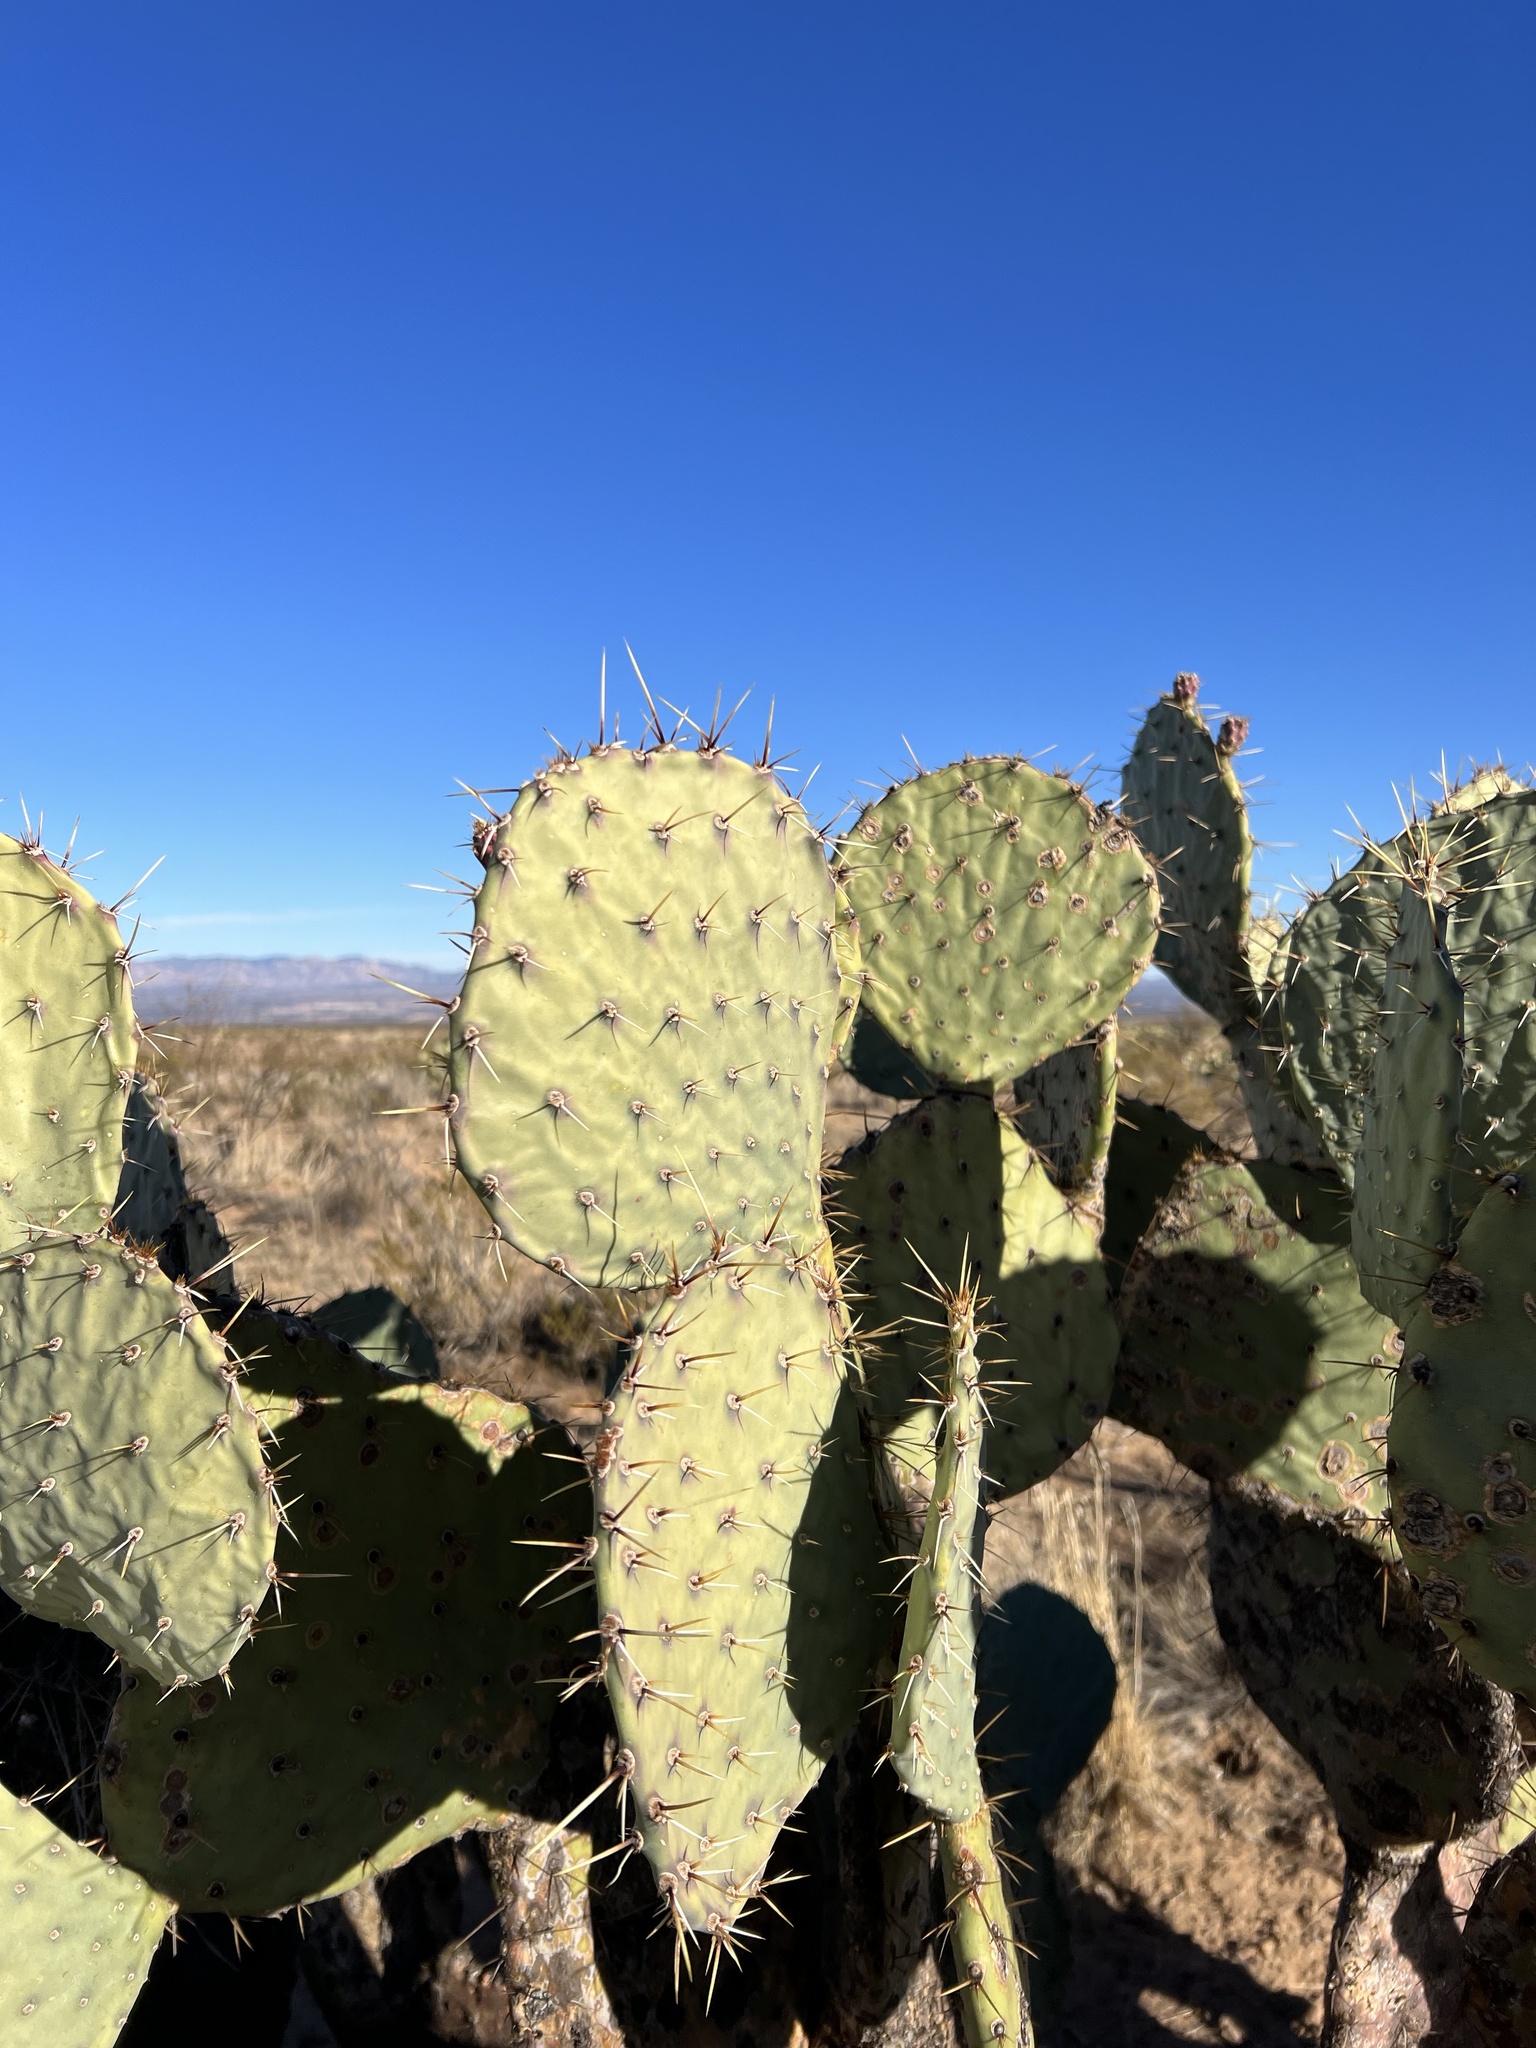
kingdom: Plantae
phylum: Tracheophyta
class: Magnoliopsida
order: Caryophyllales
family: Cactaceae
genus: Opuntia
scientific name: Opuntia engelmannii
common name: Cactus-apple
